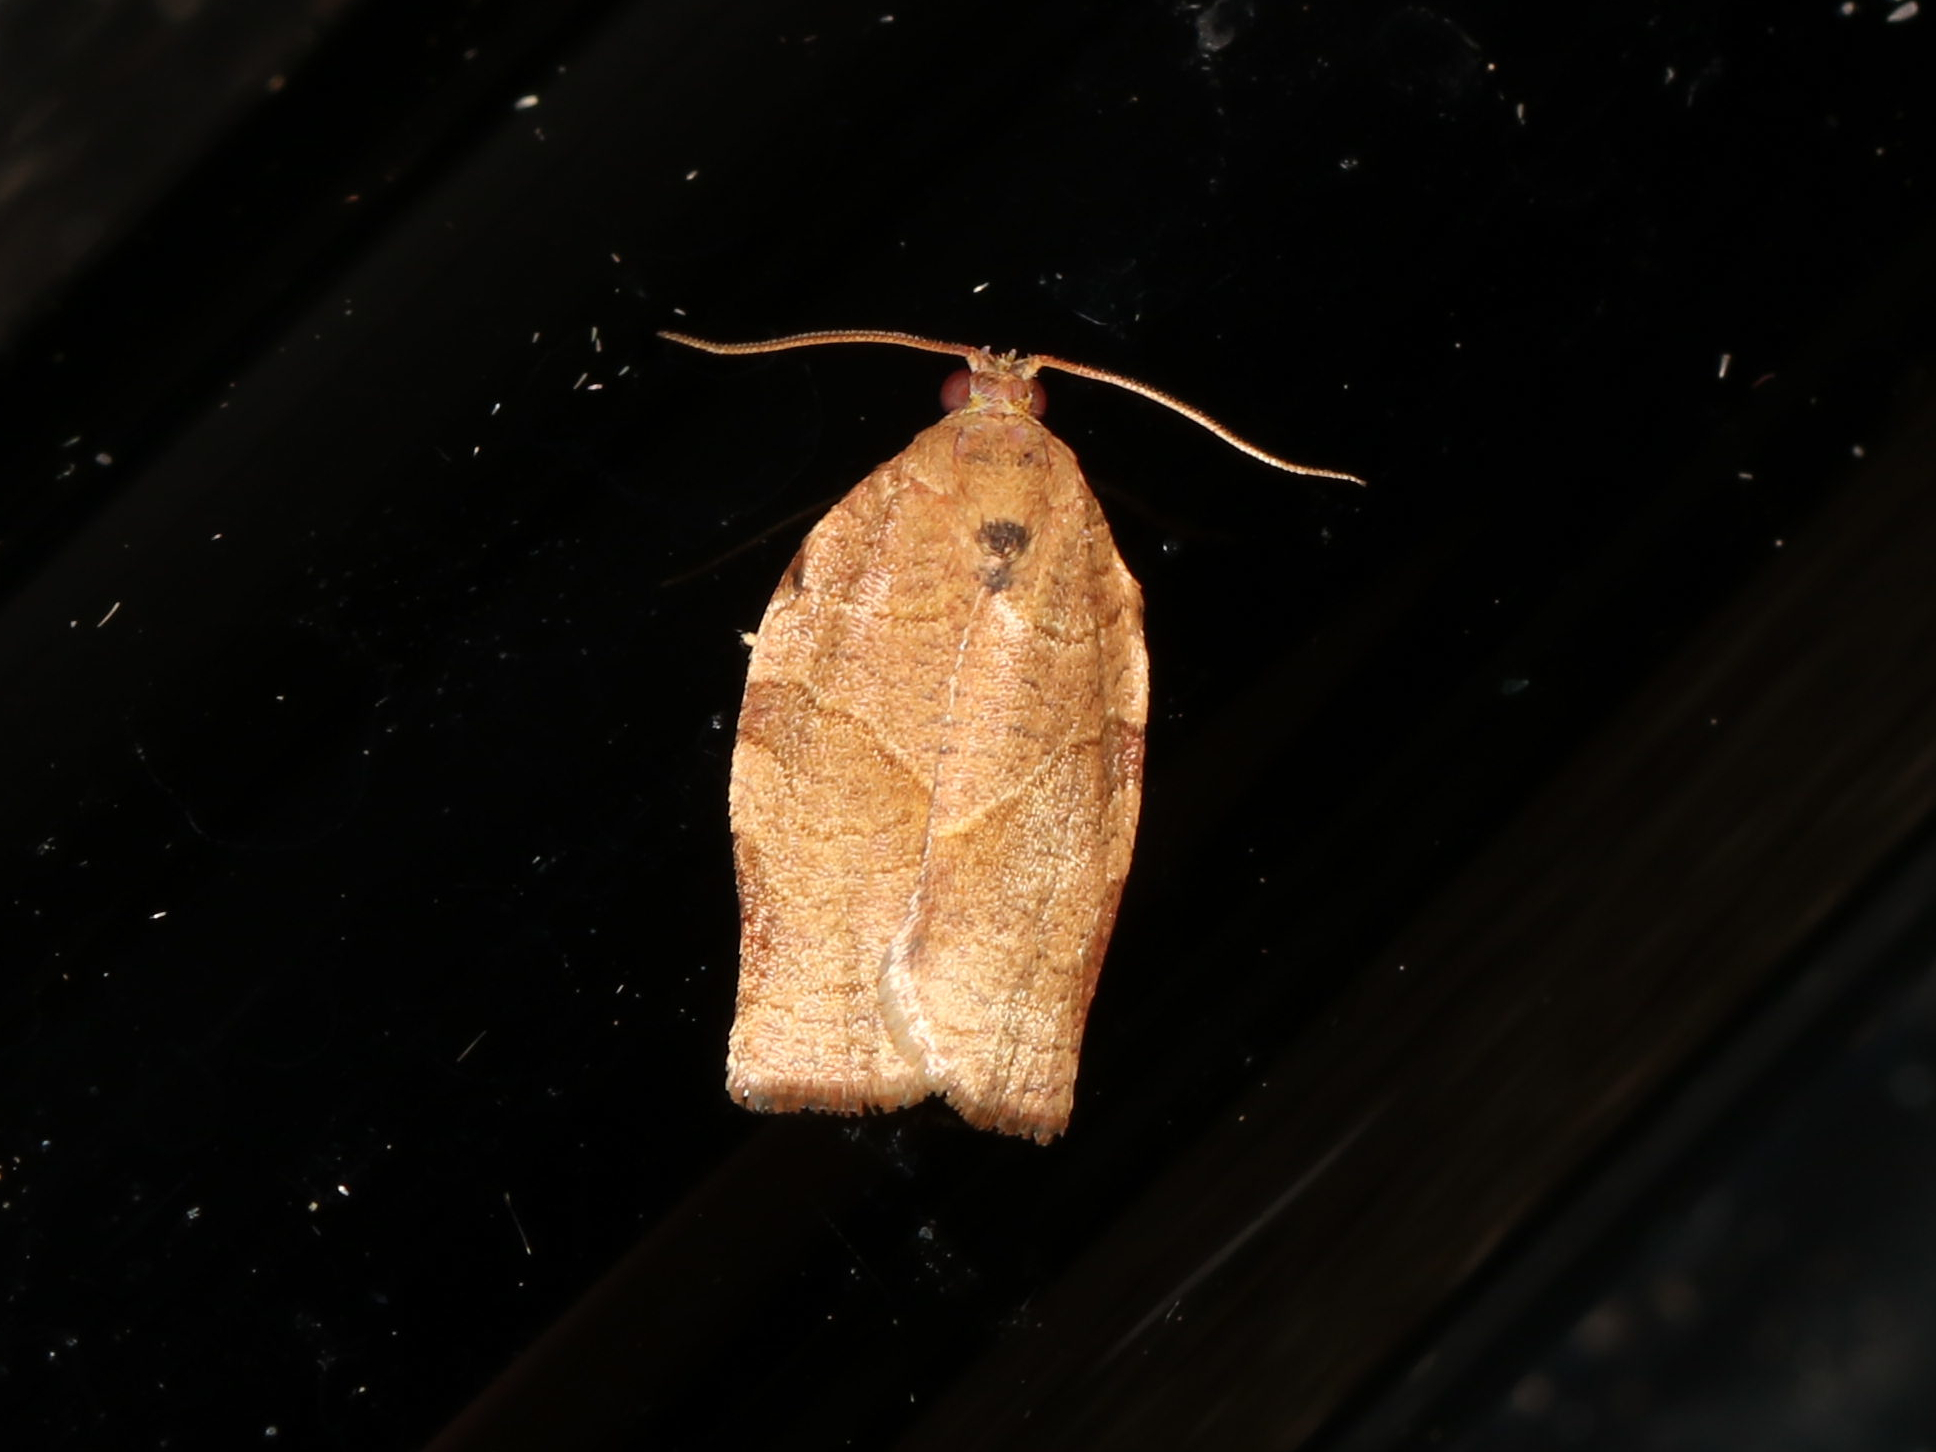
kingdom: Animalia
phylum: Arthropoda
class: Insecta
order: Lepidoptera
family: Tortricidae
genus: Choristoneura
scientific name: Choristoneura rosaceana
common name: Oblique-banded leafroller moth
